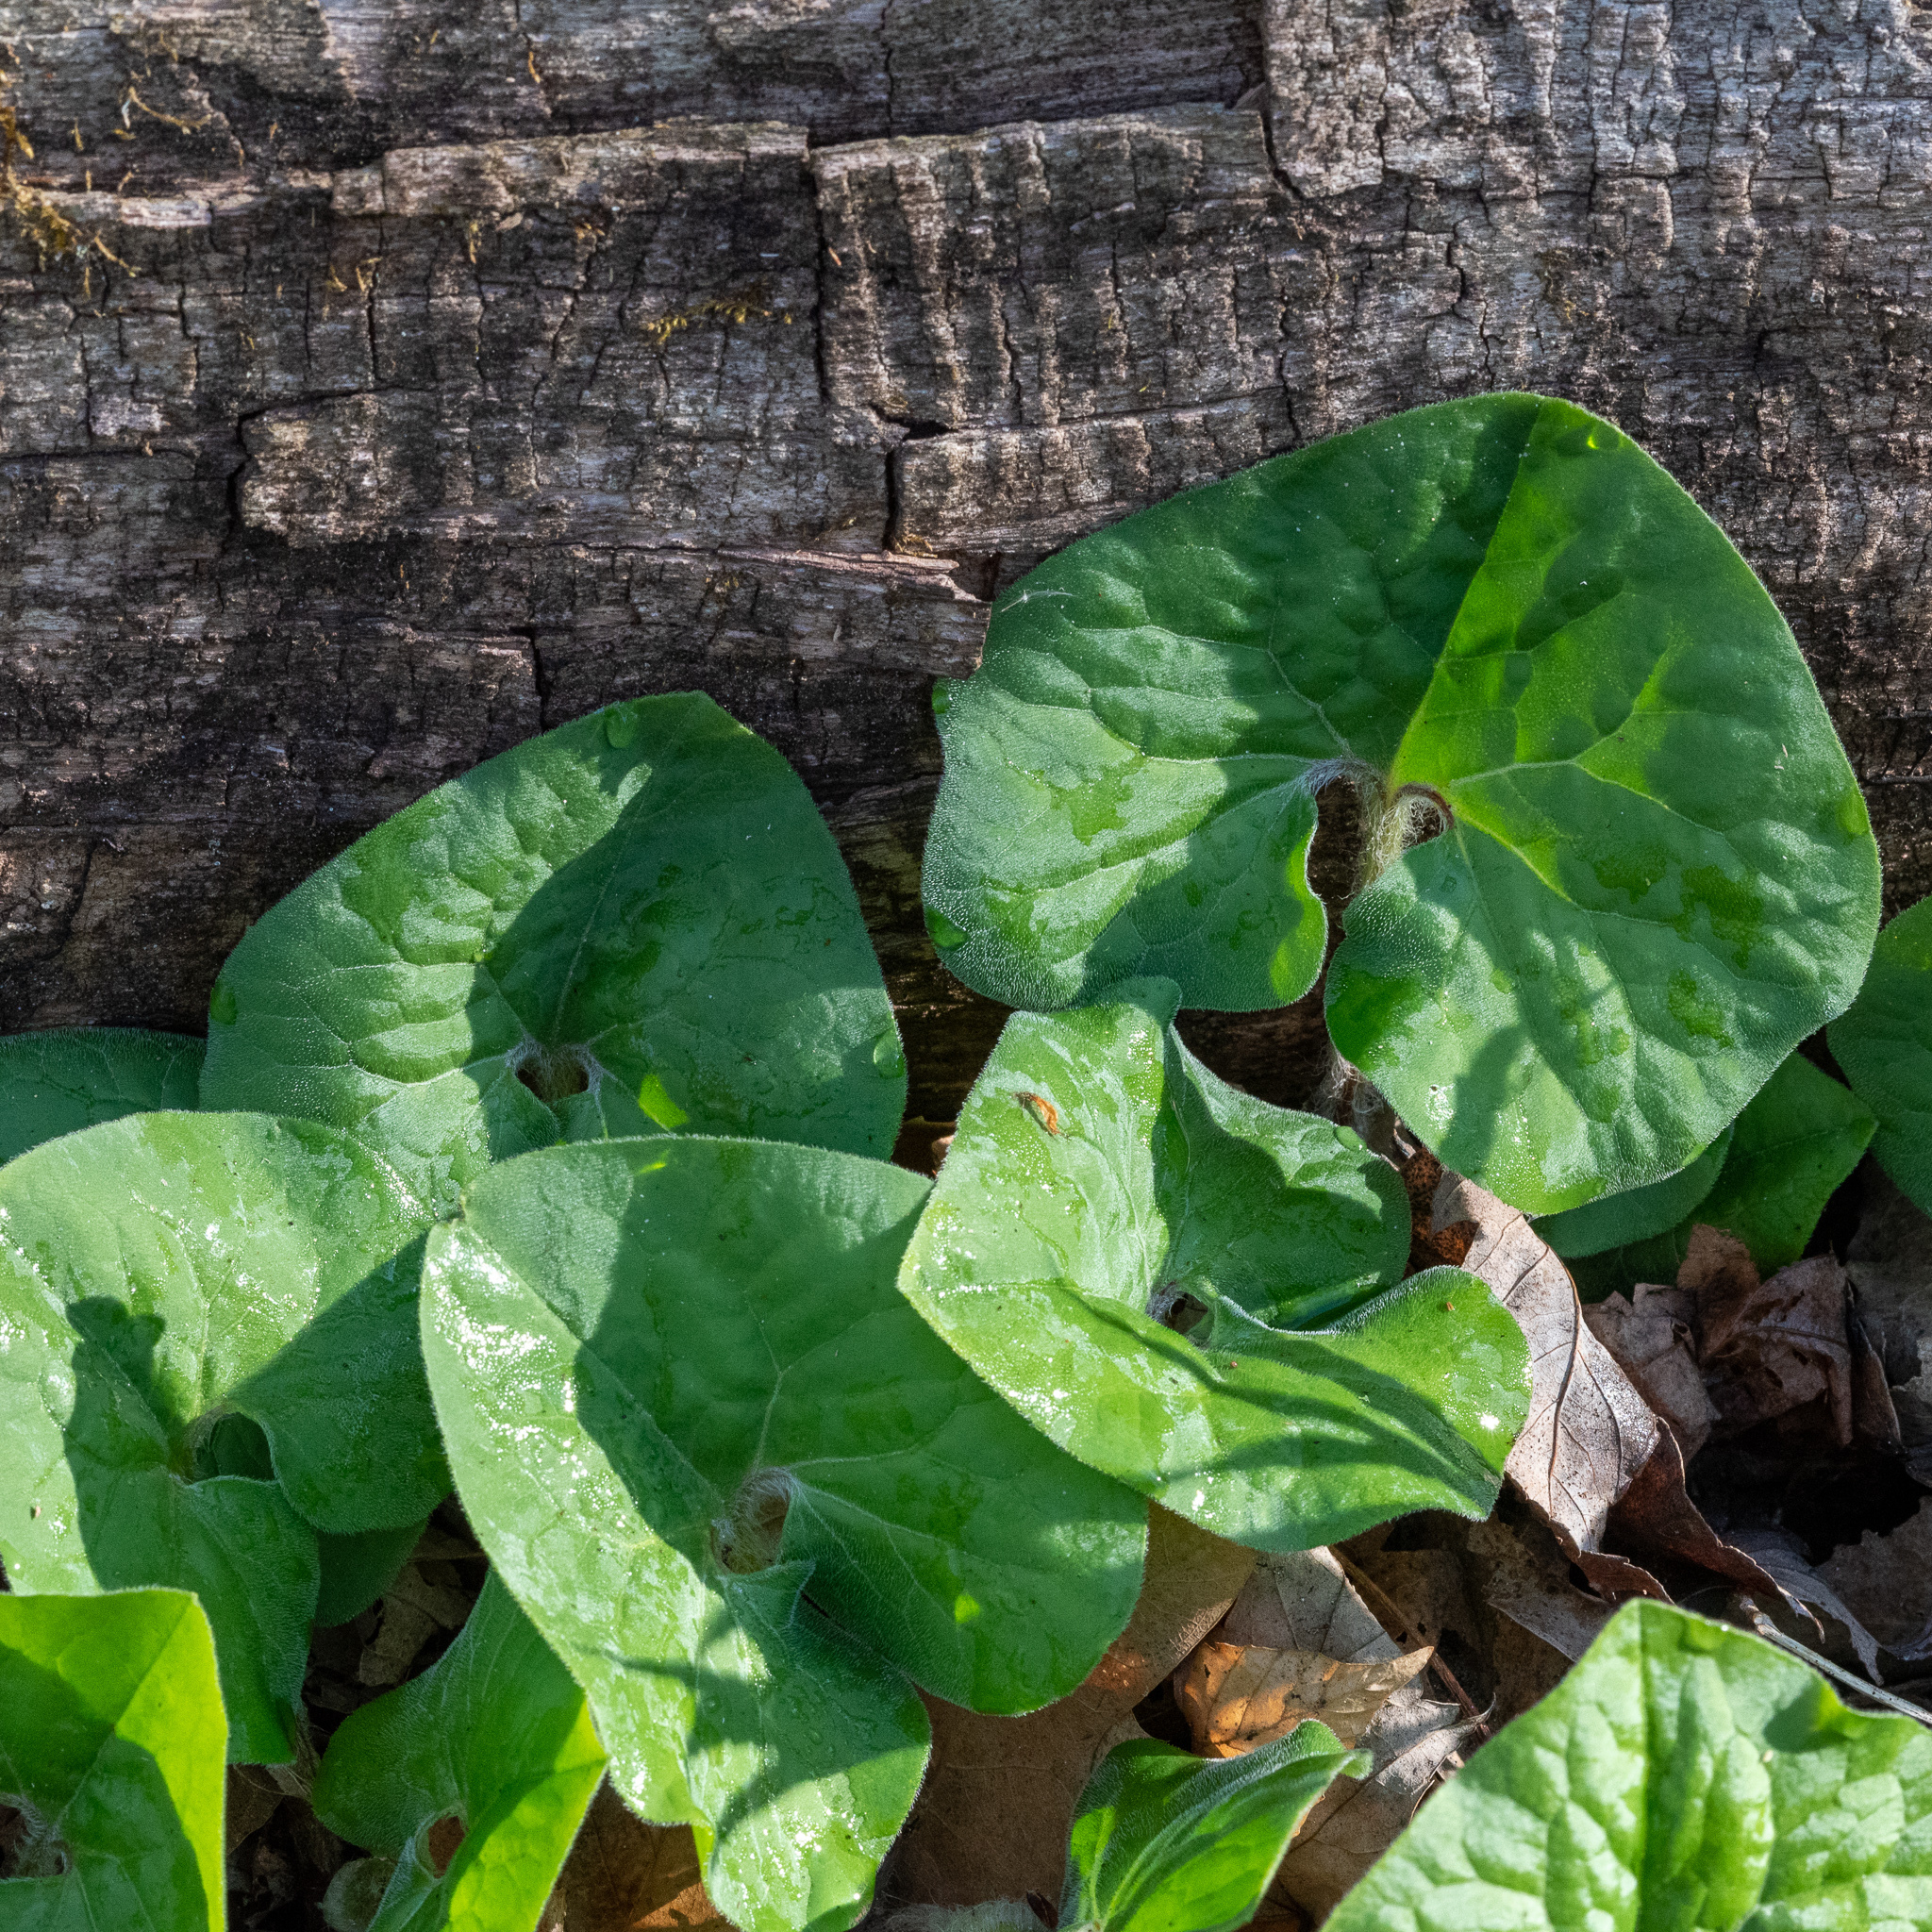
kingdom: Plantae
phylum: Tracheophyta
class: Magnoliopsida
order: Piperales
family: Aristolochiaceae
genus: Asarum
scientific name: Asarum canadense
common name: Wild ginger
